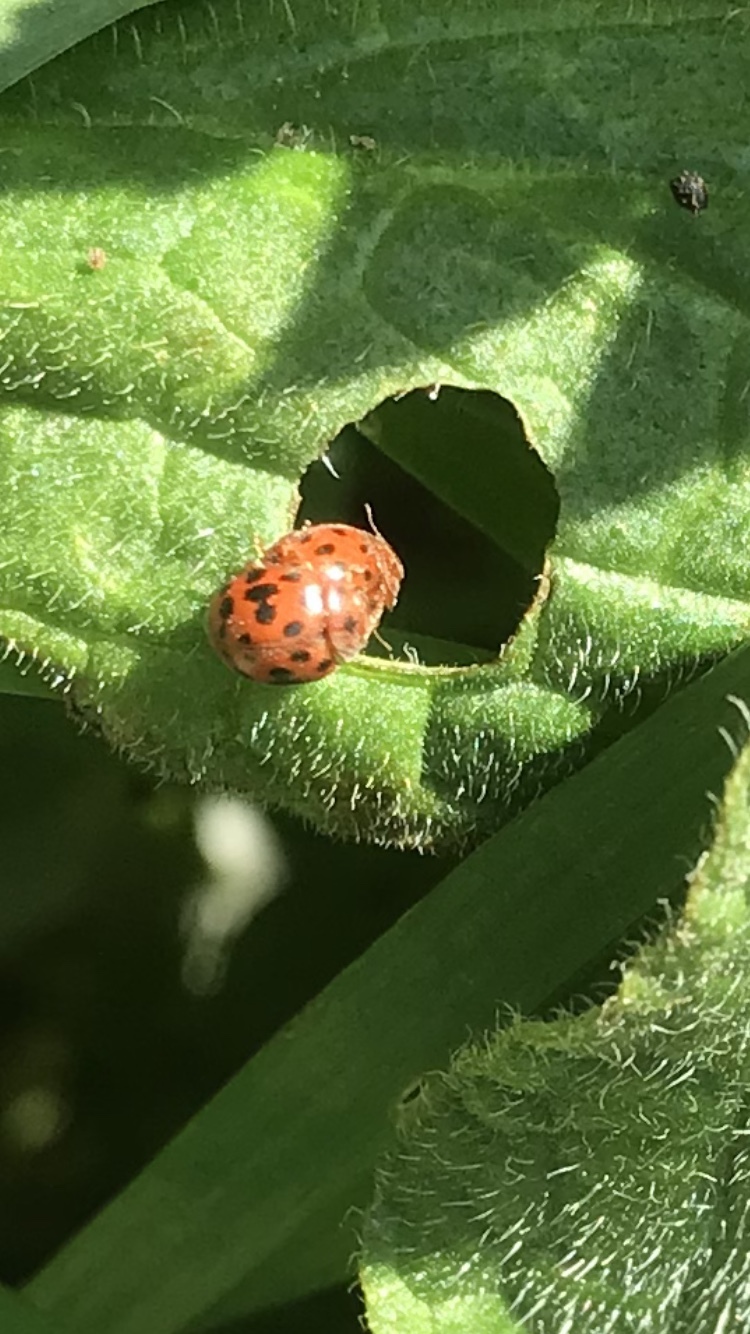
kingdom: Animalia
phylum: Arthropoda
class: Insecta
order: Coleoptera
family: Coccinellidae
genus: Subcoccinella
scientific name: Subcoccinella vigintiquatuorpunctata
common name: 24-spot ladybird
